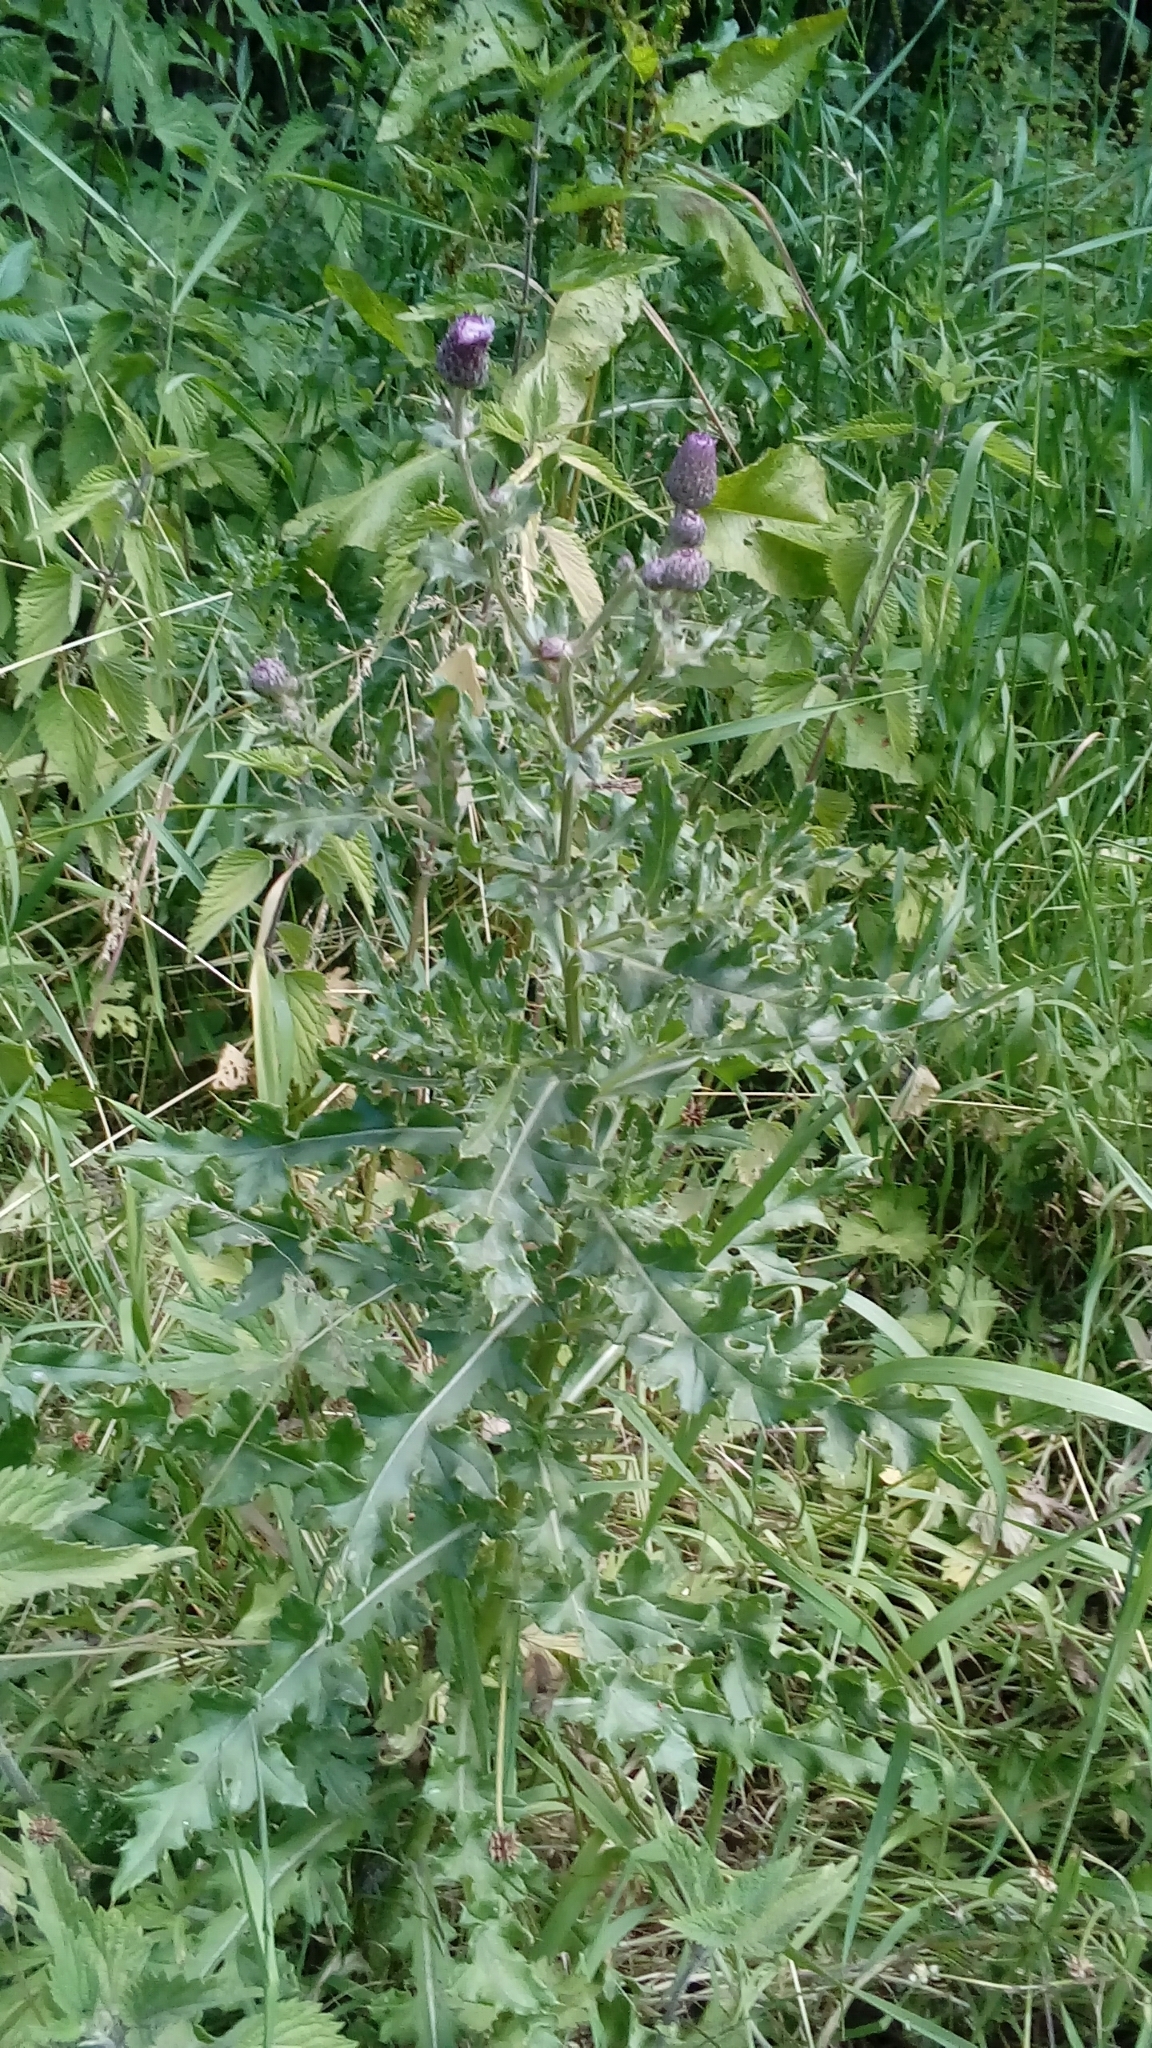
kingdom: Plantae
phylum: Tracheophyta
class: Magnoliopsida
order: Asterales
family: Asteraceae
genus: Cirsium
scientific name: Cirsium arvense
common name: Creeping thistle
